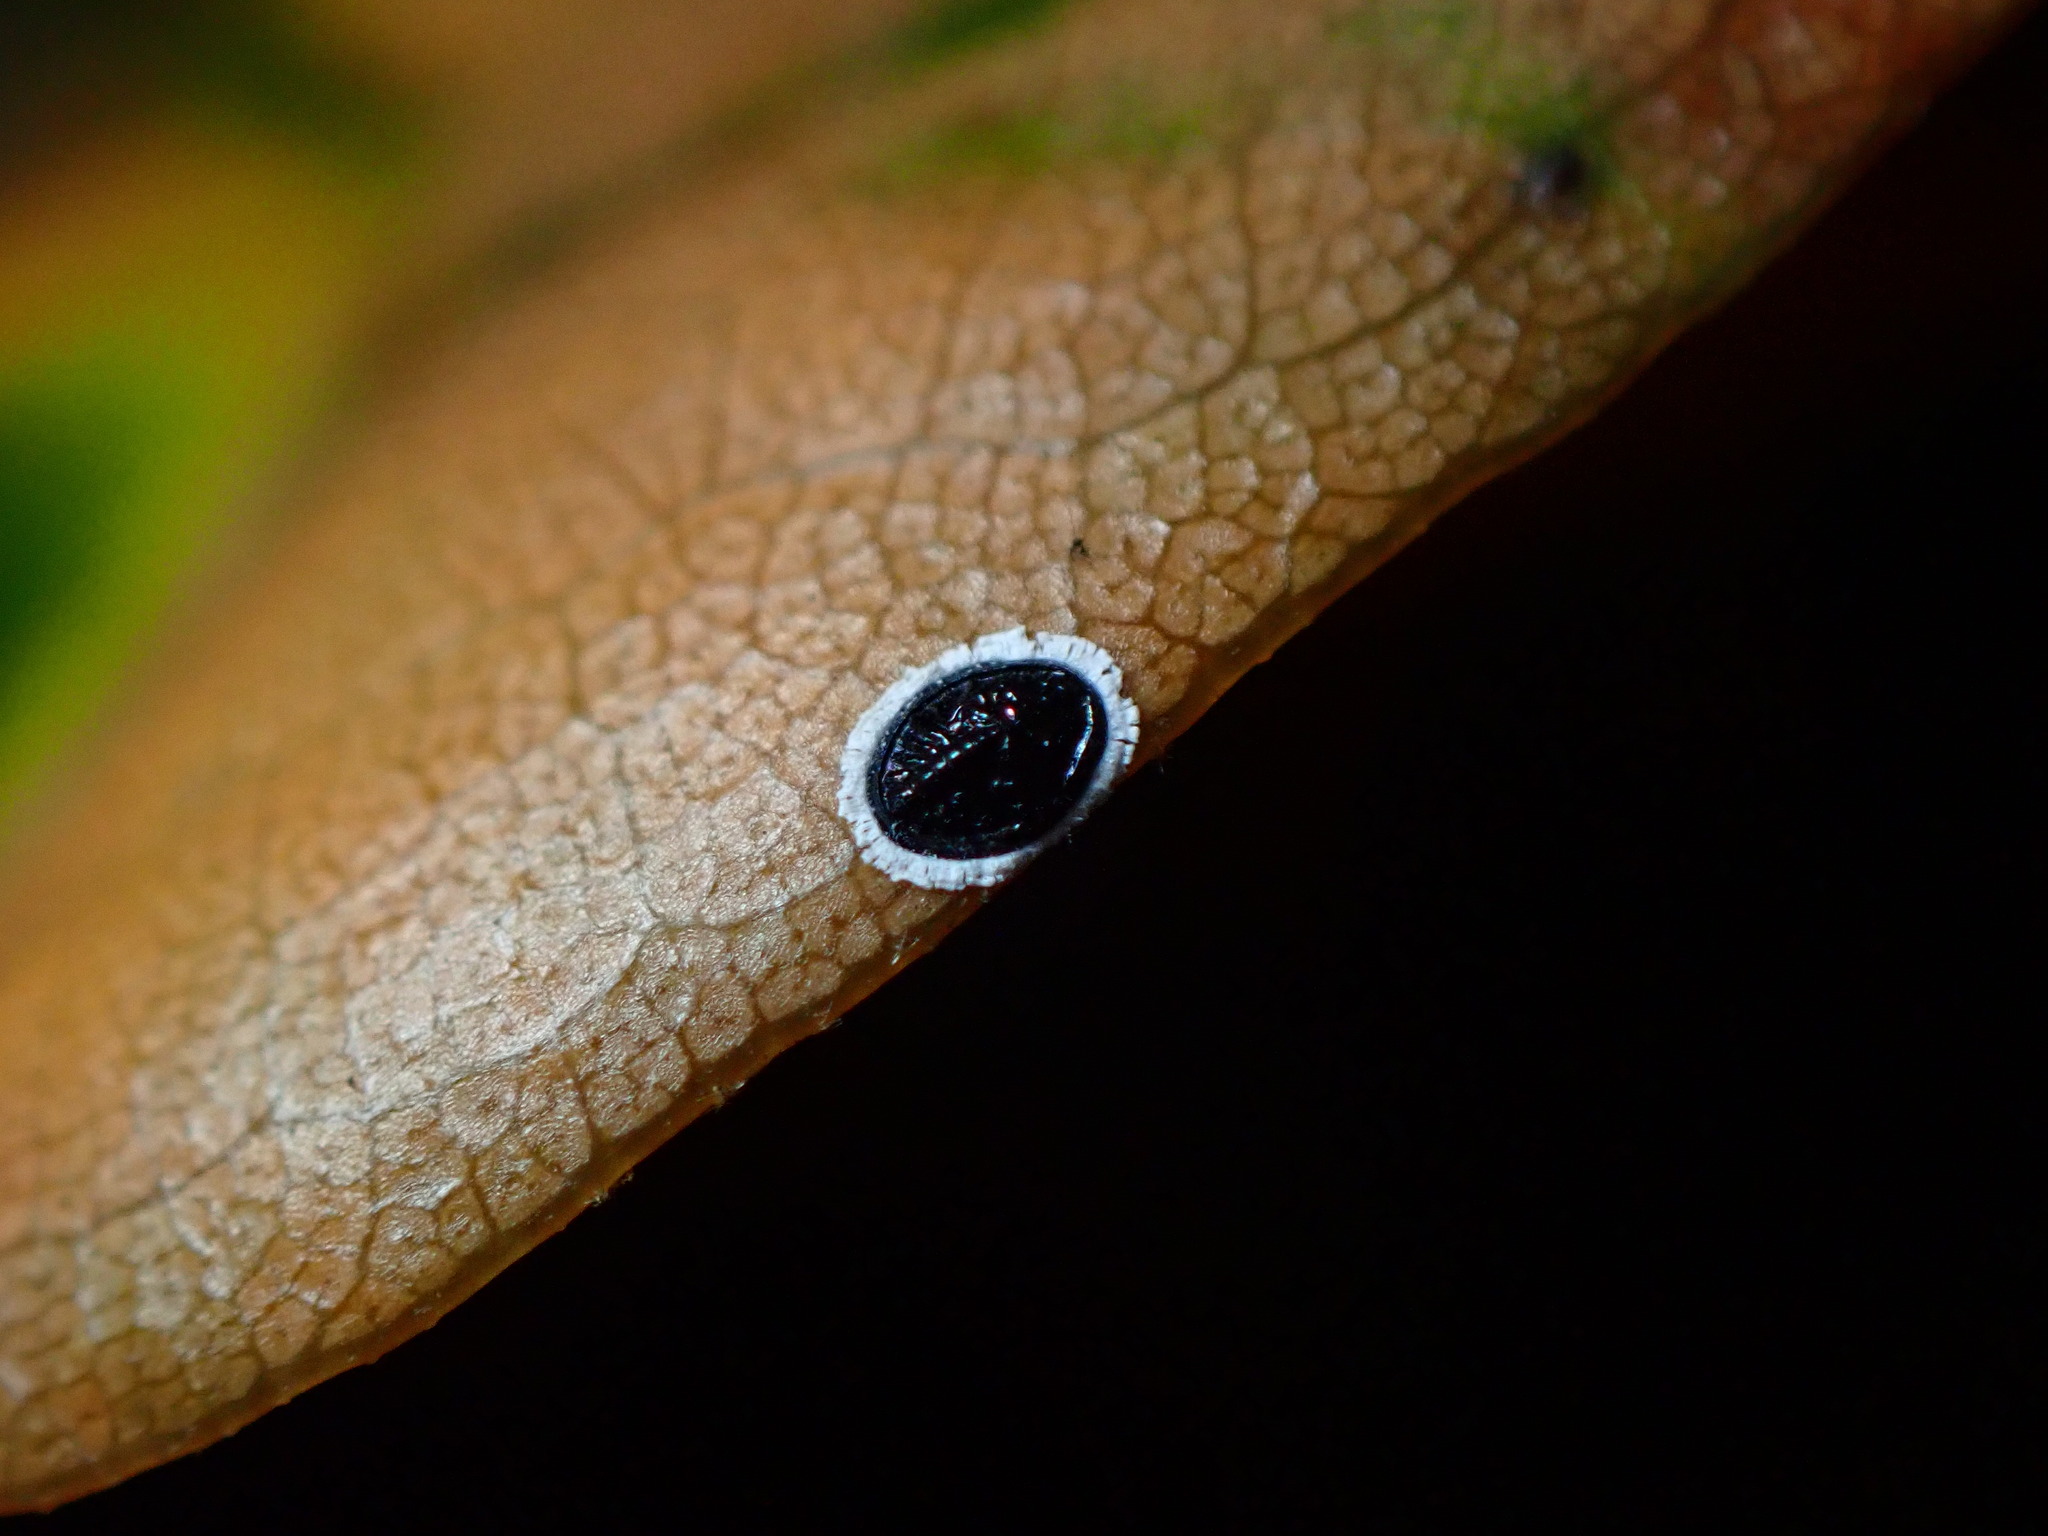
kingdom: Animalia
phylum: Arthropoda
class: Insecta
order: Hemiptera
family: Aleyrodidae
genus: Tetraleurodes
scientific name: Tetraleurodes perileuca
